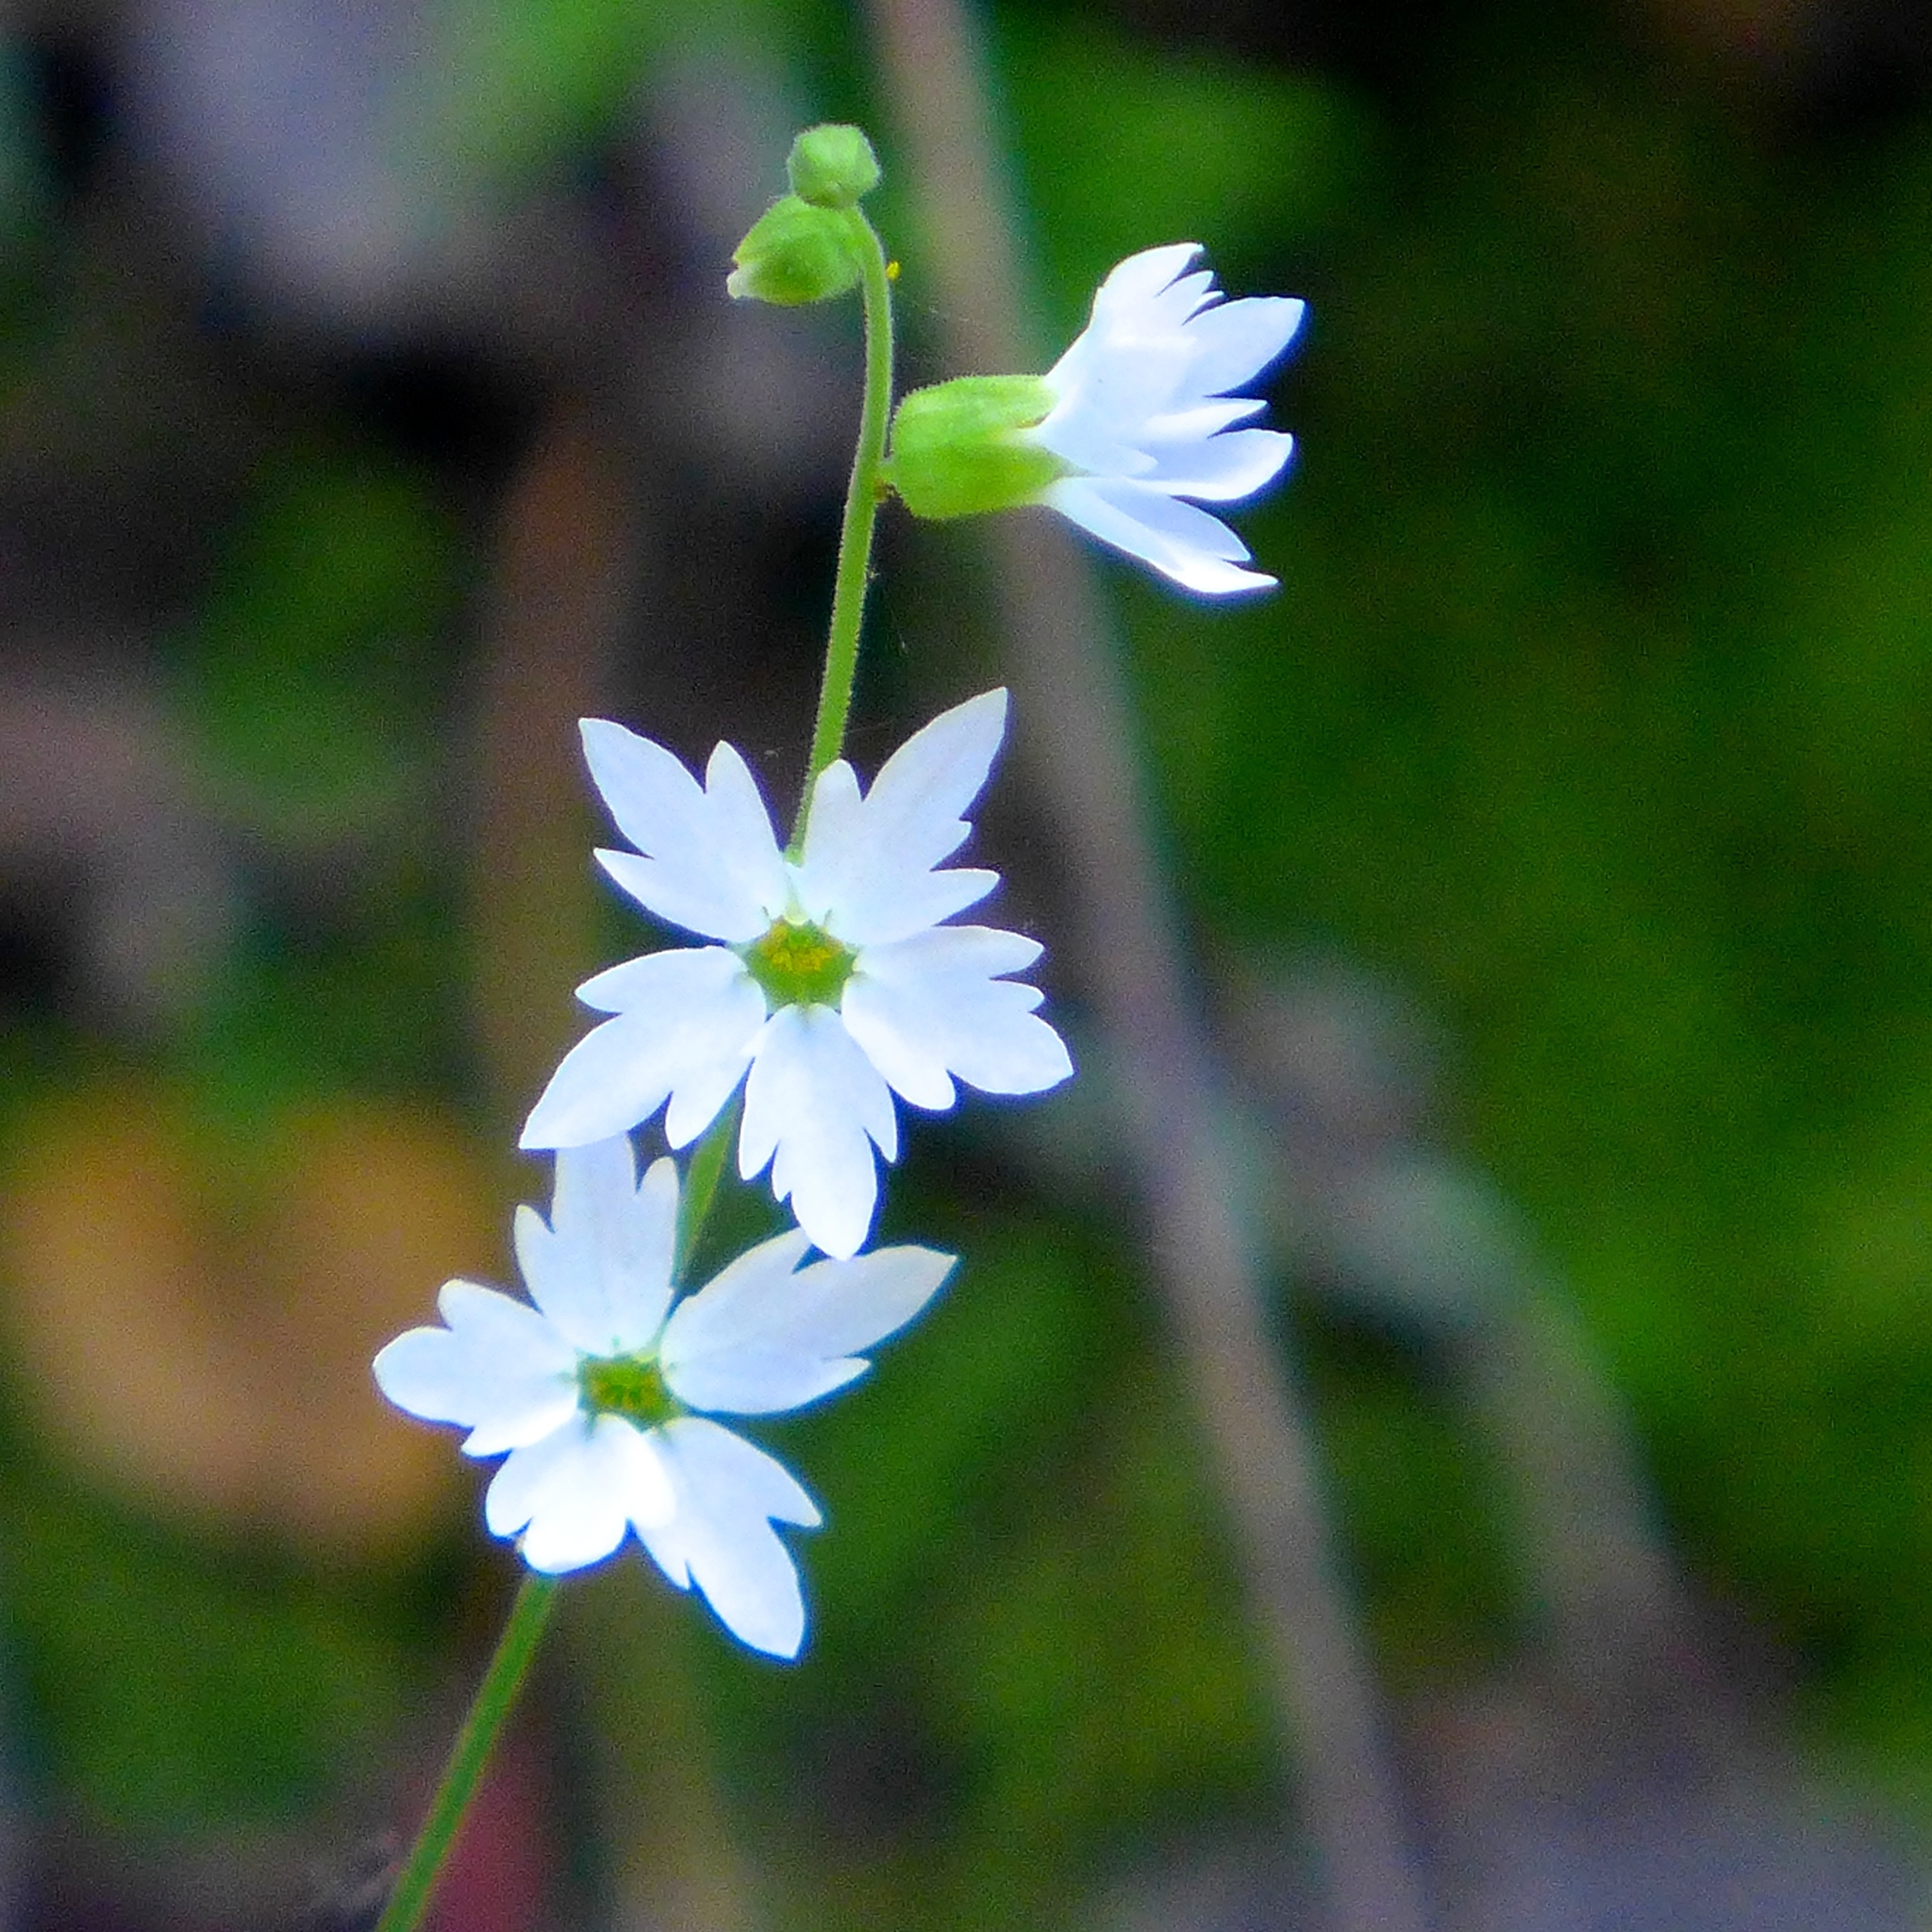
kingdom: Plantae
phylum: Tracheophyta
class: Magnoliopsida
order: Saxifragales
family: Saxifragaceae
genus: Lithophragma
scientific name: Lithophragma heterophyllum
